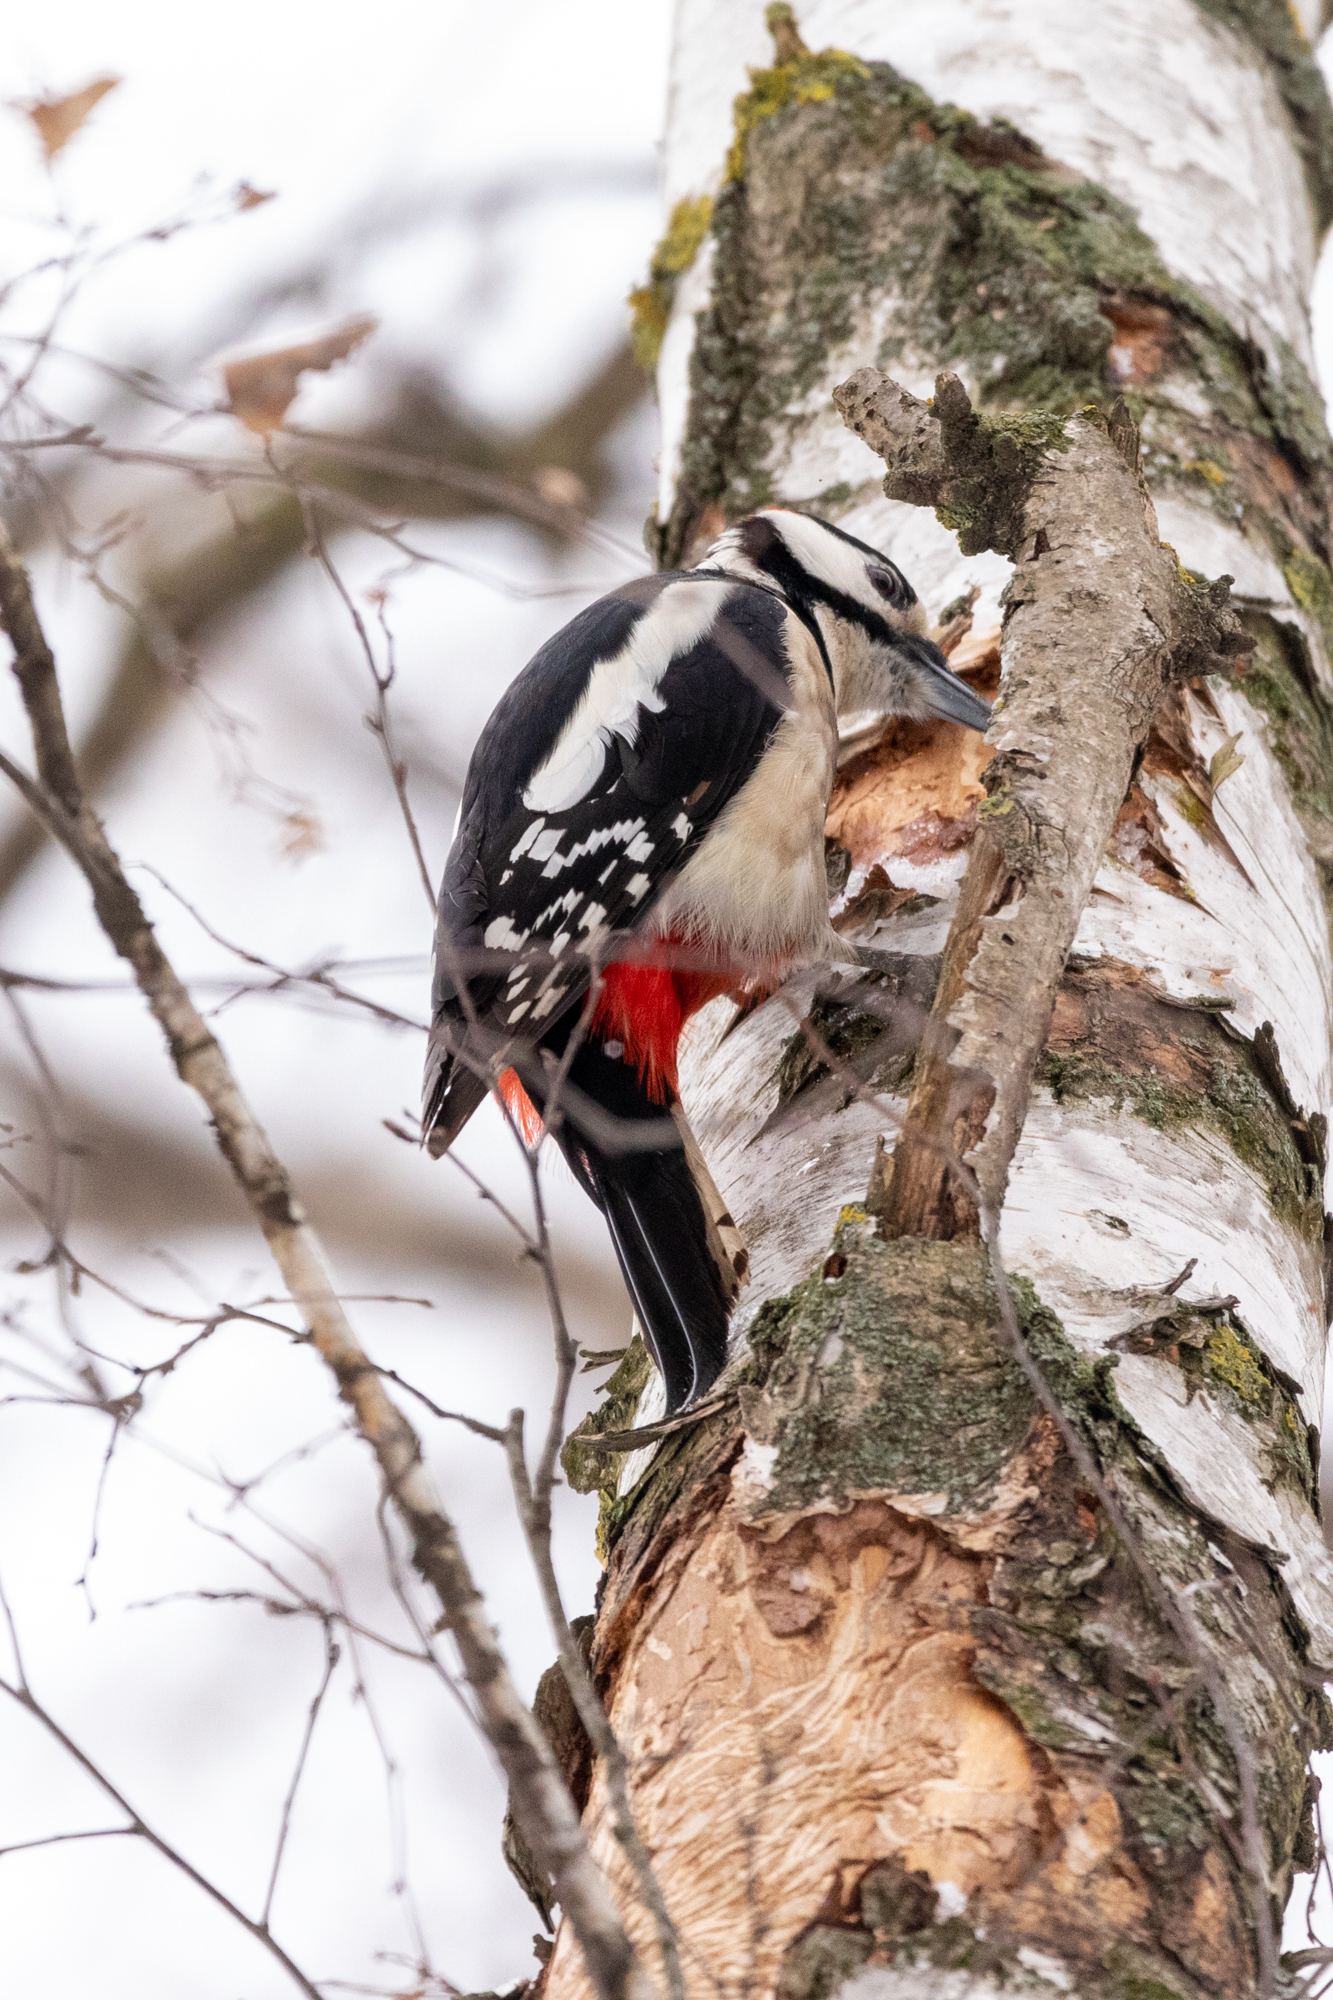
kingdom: Animalia
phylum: Chordata
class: Aves
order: Piciformes
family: Picidae
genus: Dendrocopos
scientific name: Dendrocopos major
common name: Great spotted woodpecker
